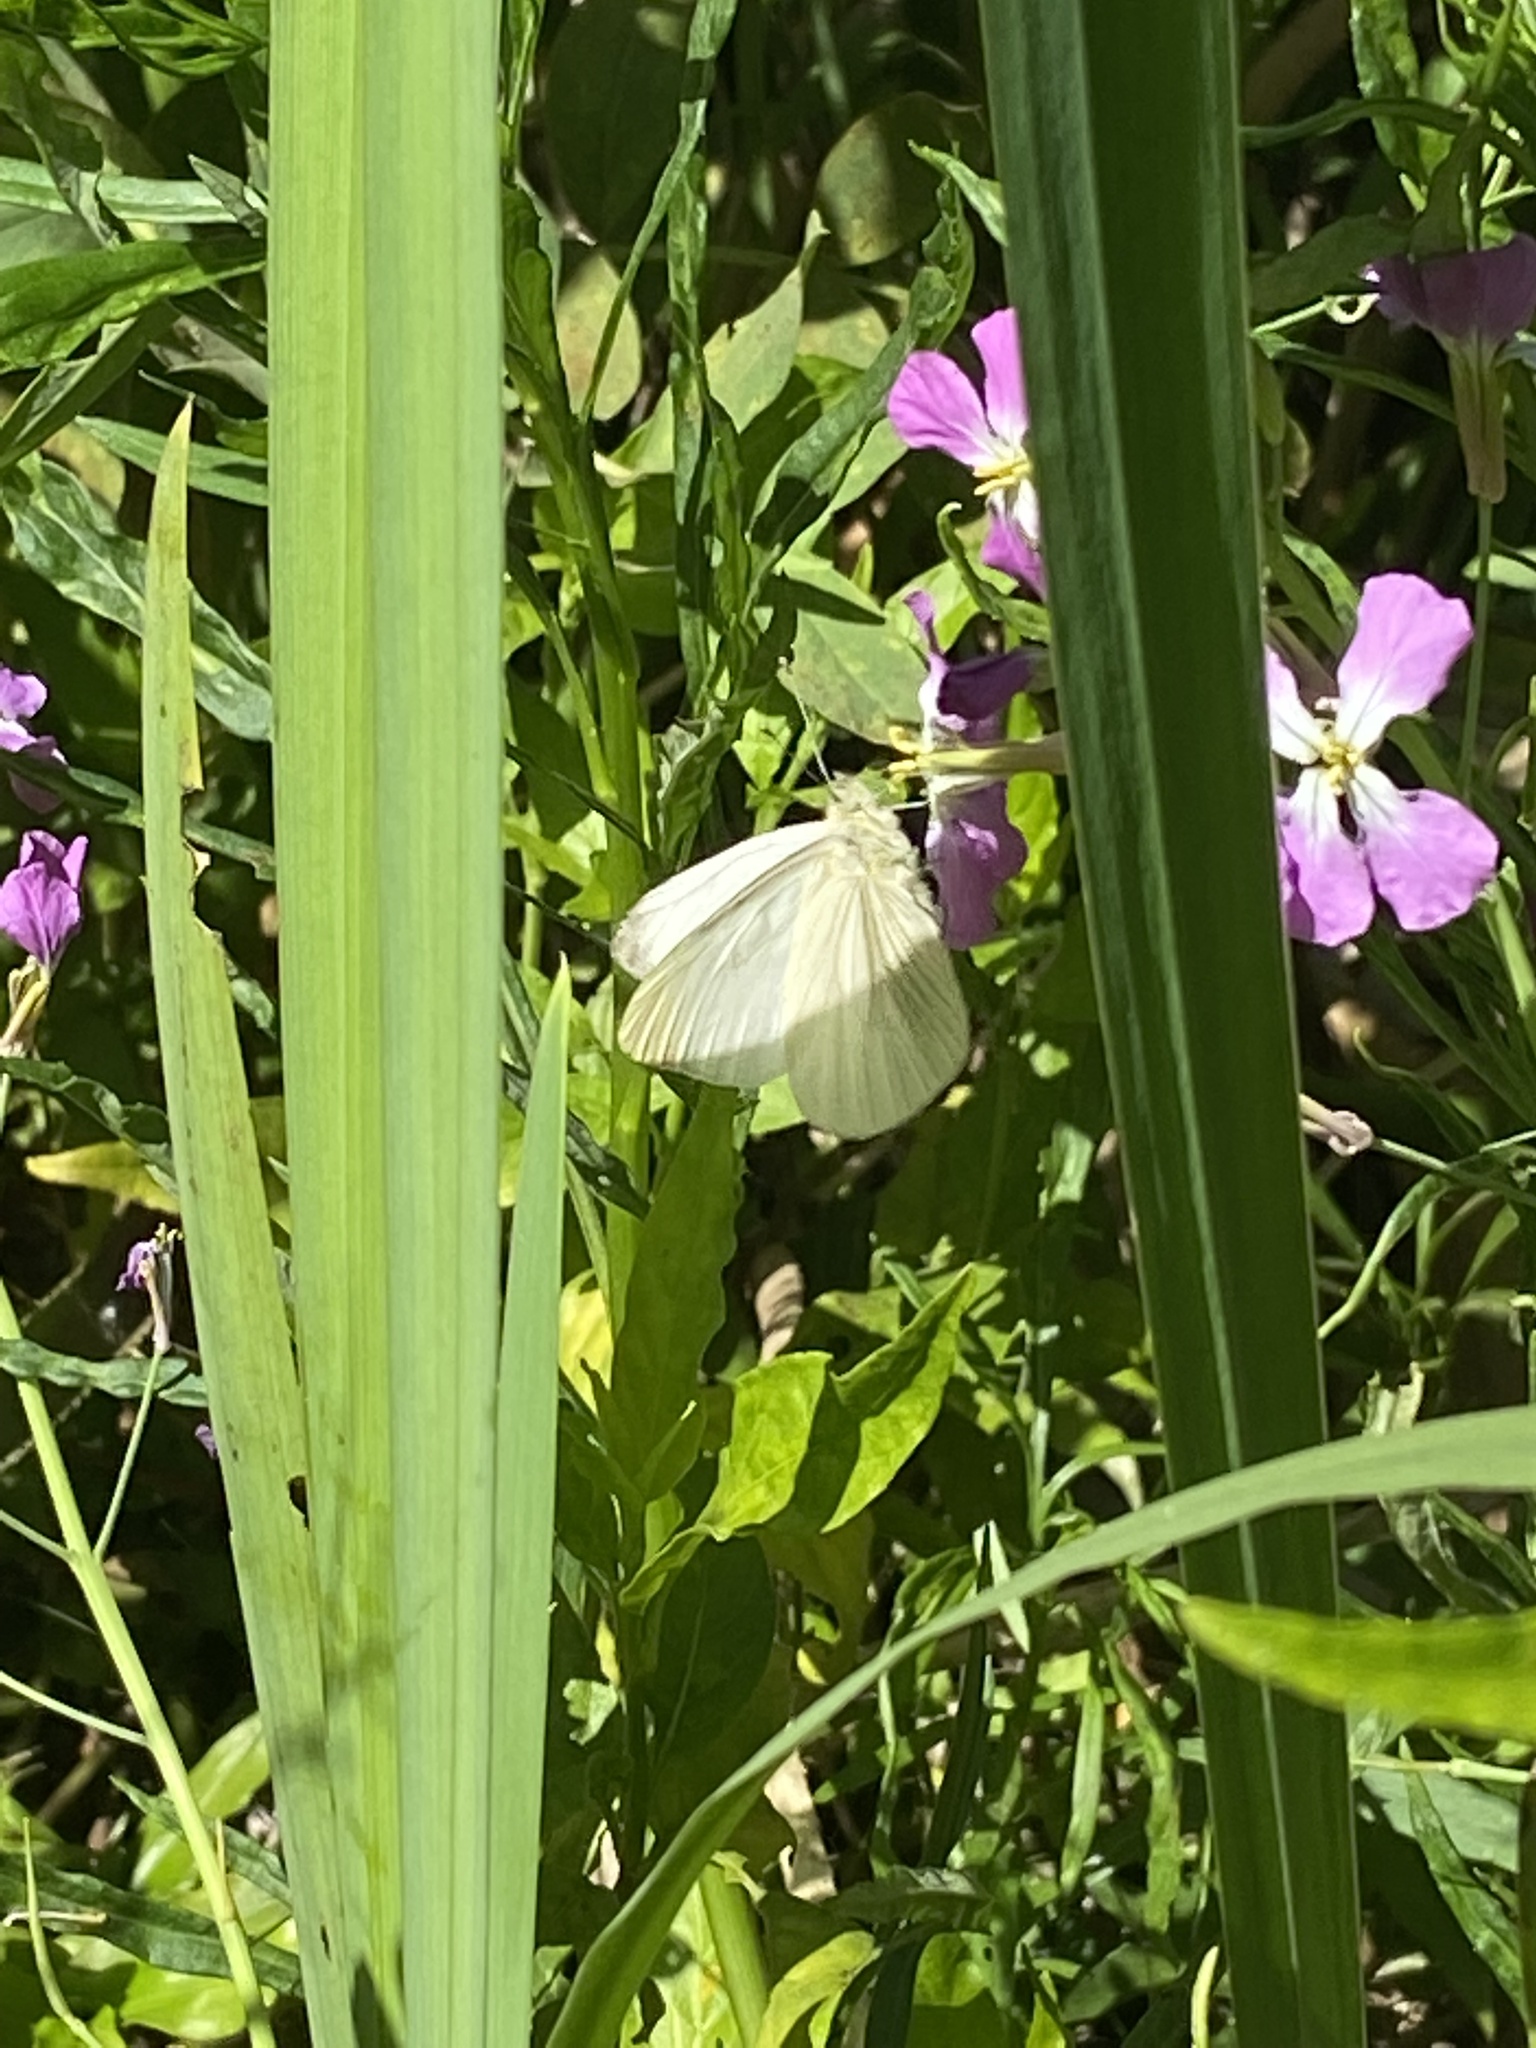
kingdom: Animalia
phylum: Arthropoda
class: Insecta
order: Lepidoptera
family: Pieridae
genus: Theochila
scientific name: Theochila maenacte
